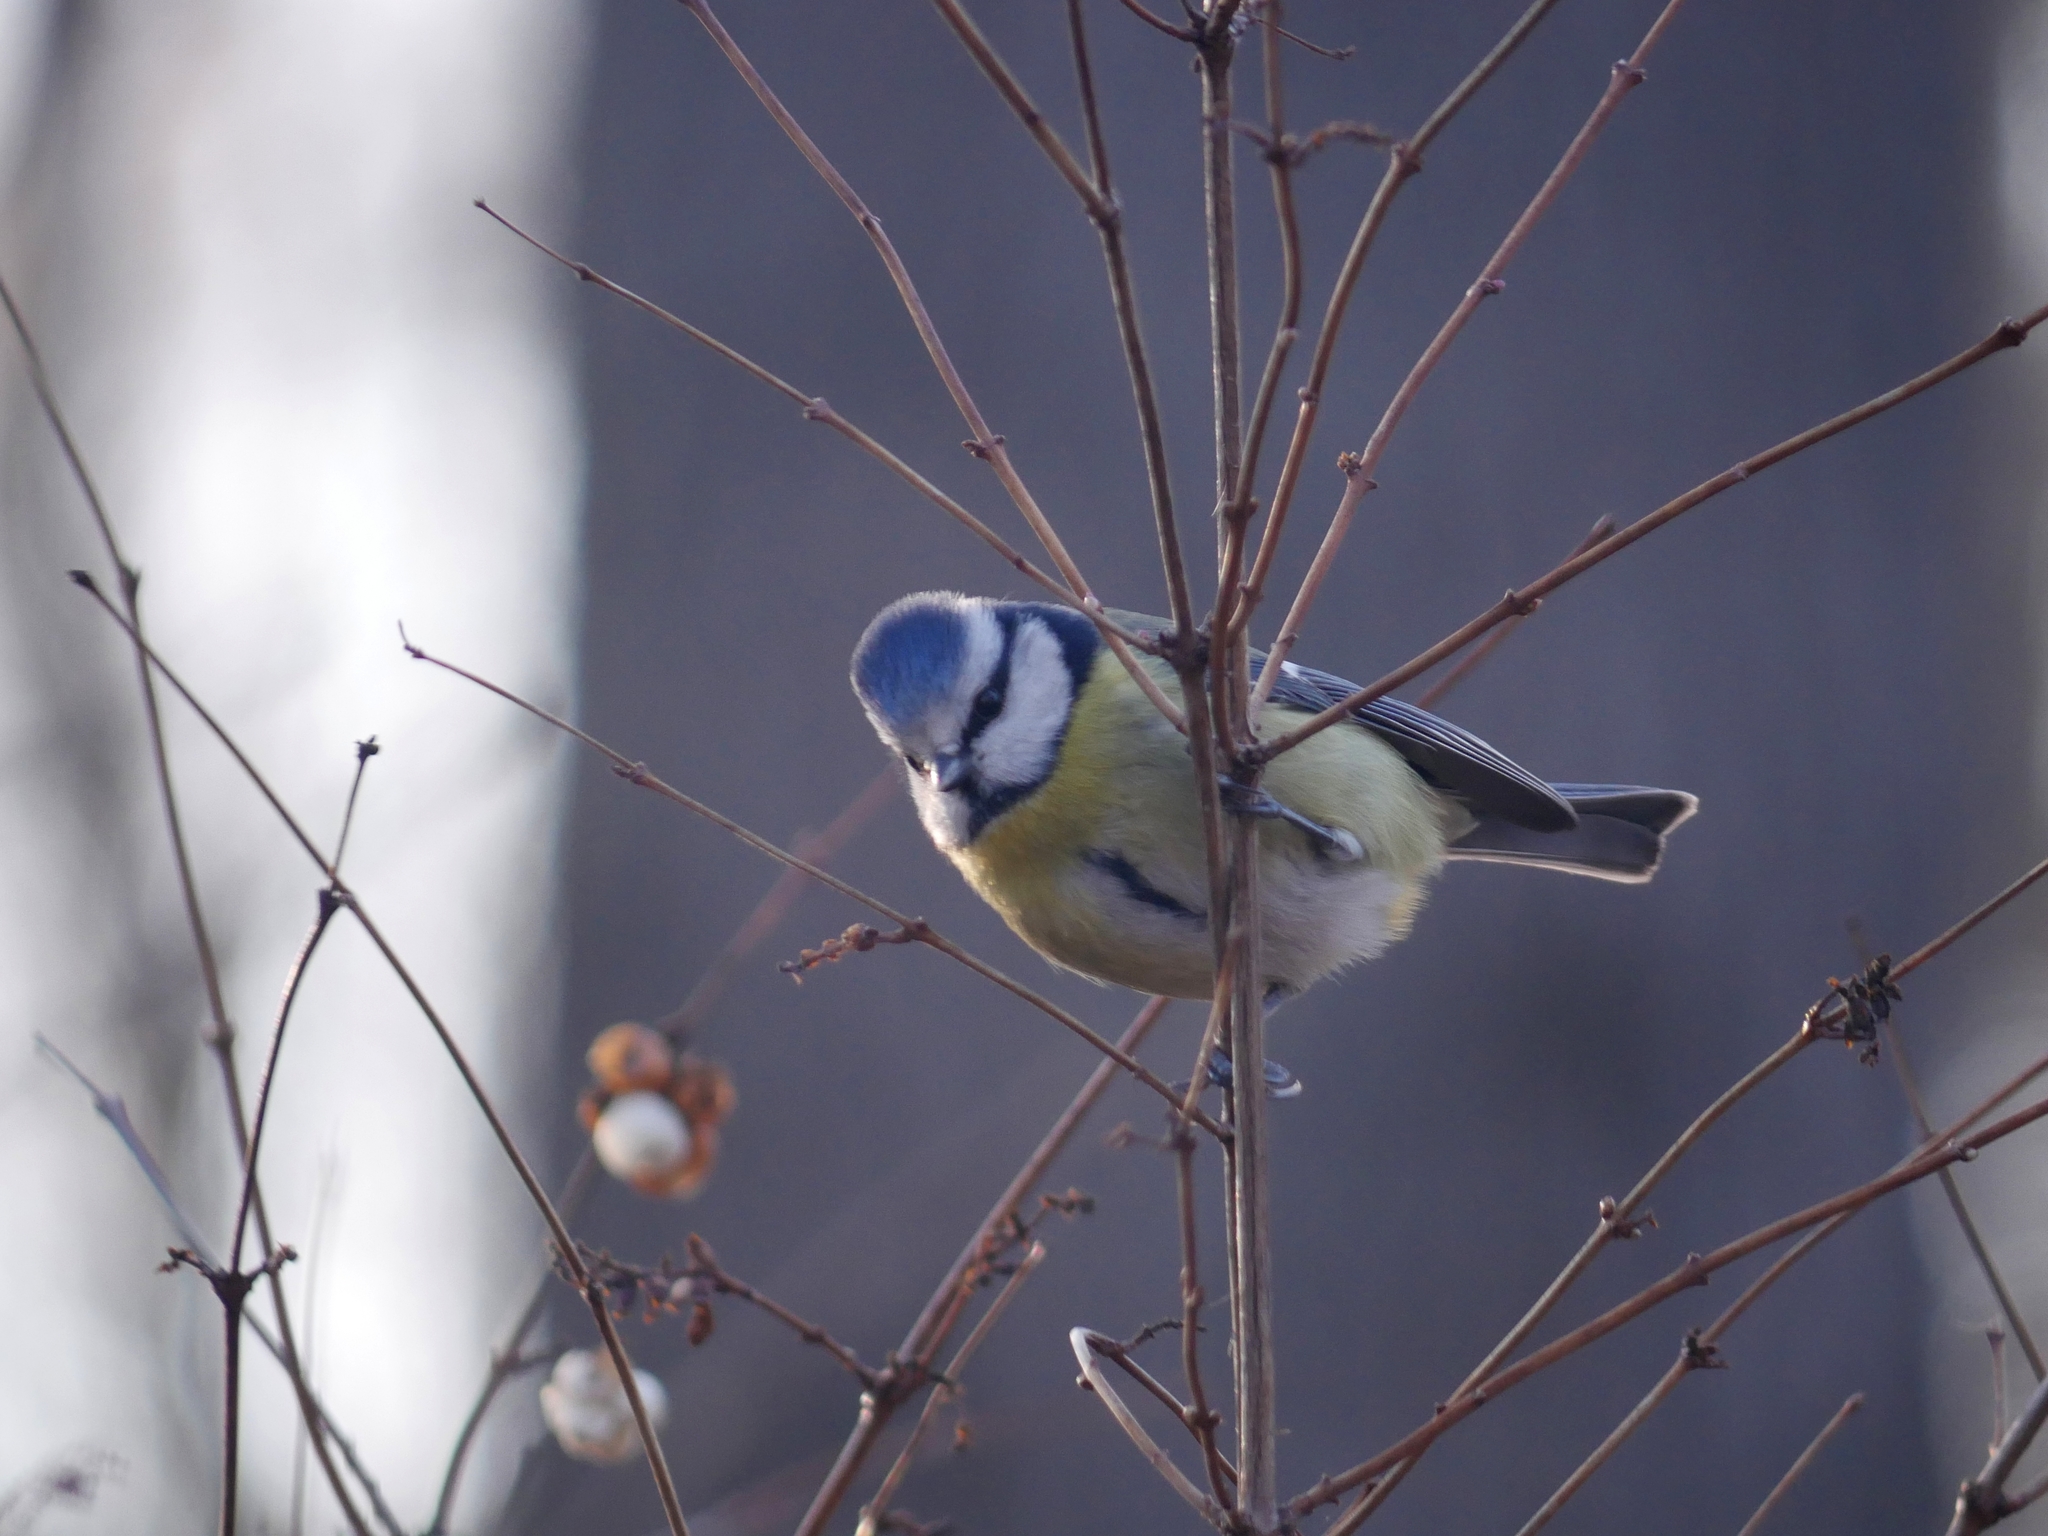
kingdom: Animalia
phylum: Chordata
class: Aves
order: Passeriformes
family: Paridae
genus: Cyanistes
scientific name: Cyanistes caeruleus
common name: Eurasian blue tit
